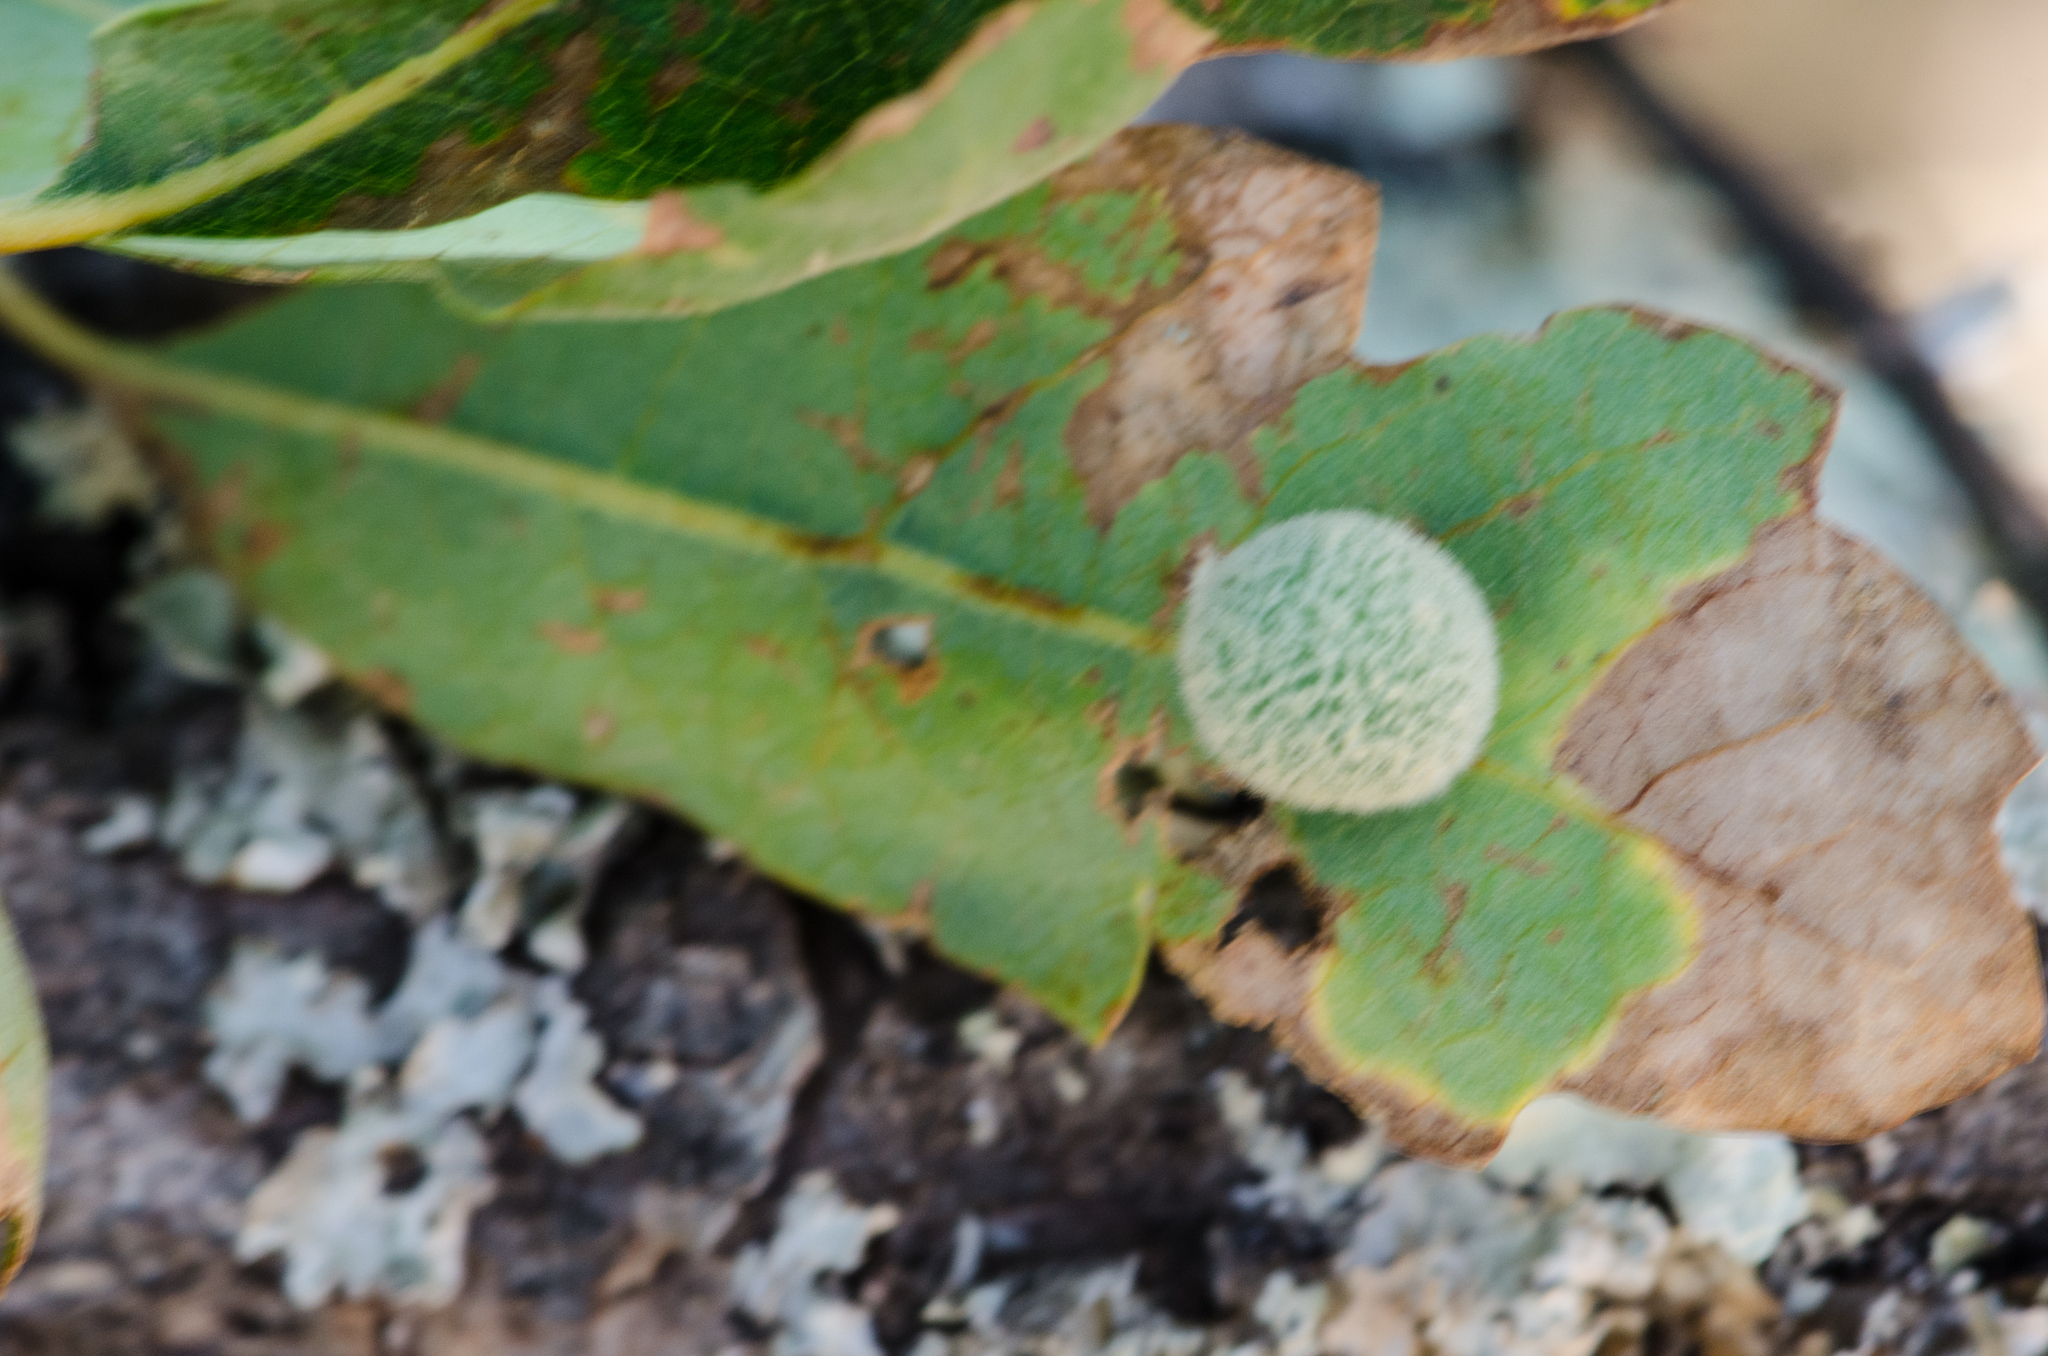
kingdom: Animalia
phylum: Arthropoda
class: Insecta
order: Hymenoptera
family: Cynipidae
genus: Cynips
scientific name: Cynips
